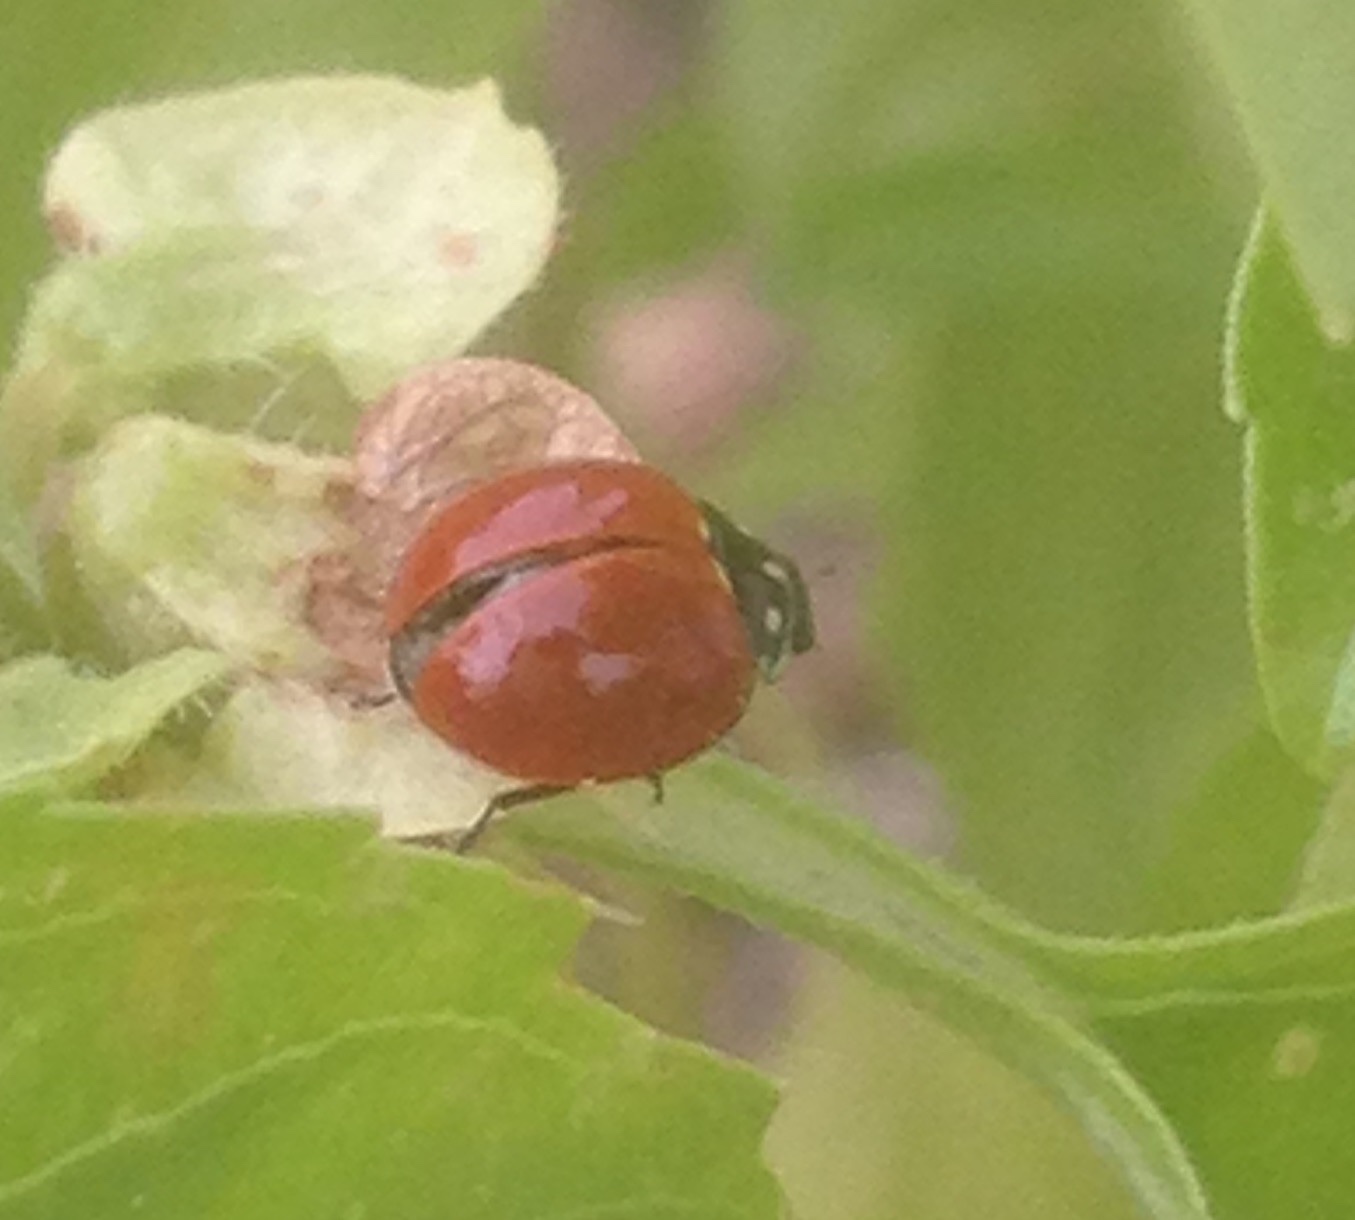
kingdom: Animalia
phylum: Arthropoda
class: Insecta
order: Coleoptera
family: Coccinellidae
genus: Cycloneda
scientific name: Cycloneda sanguinea
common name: Ladybird beetle
